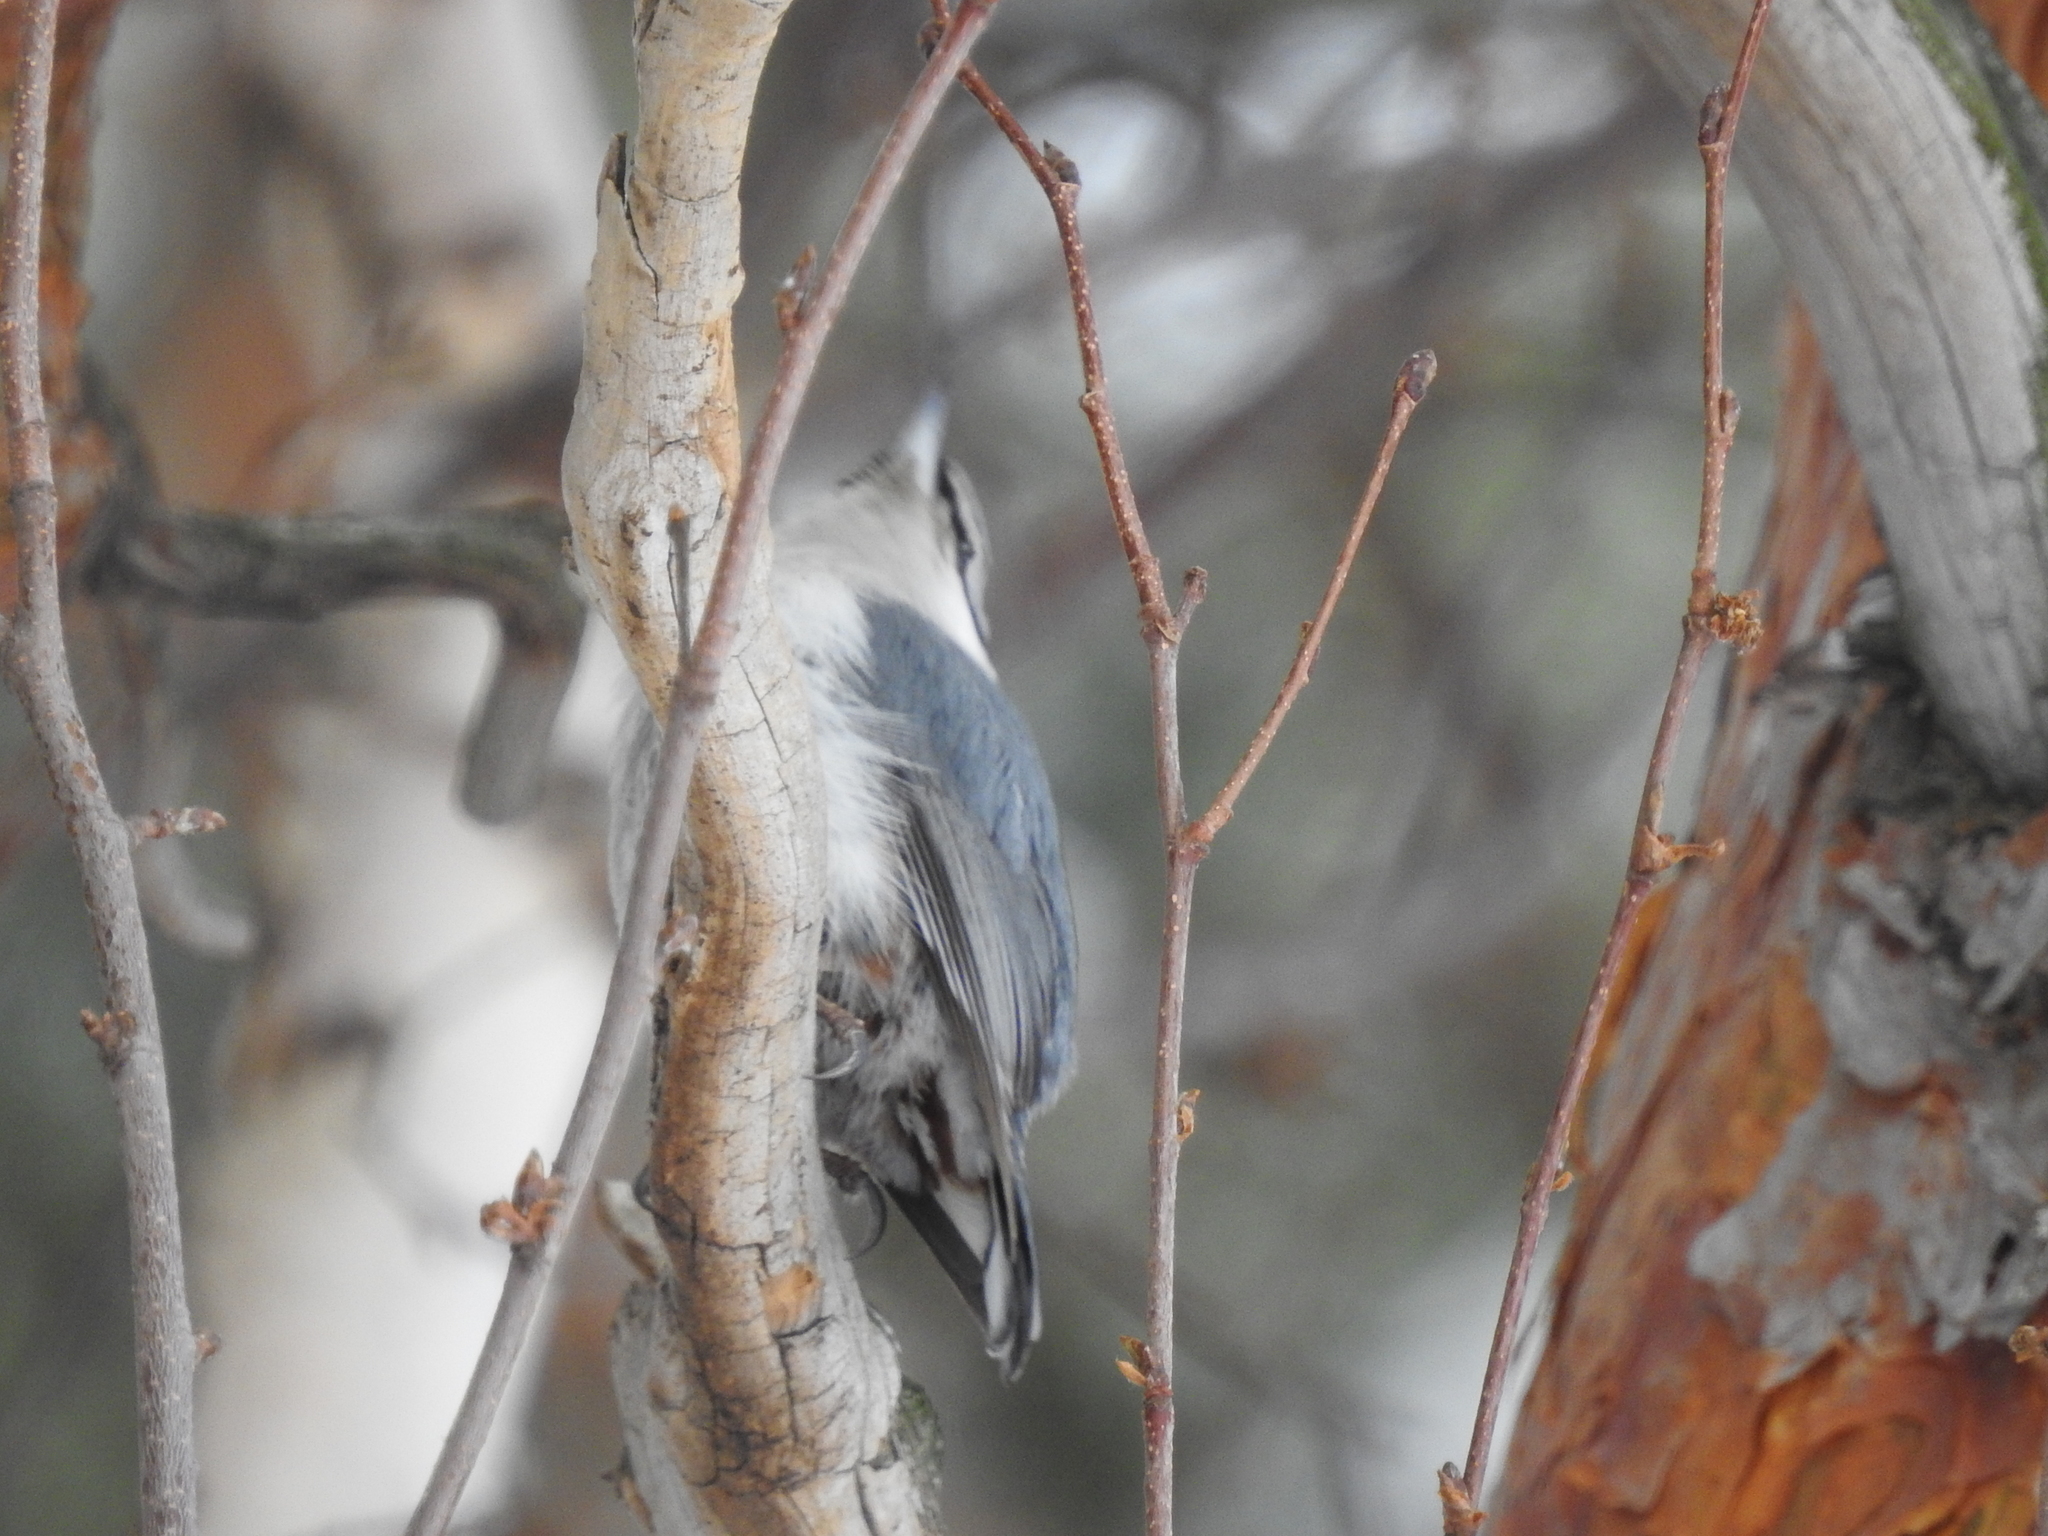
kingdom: Animalia
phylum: Chordata
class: Aves
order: Passeriformes
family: Sittidae
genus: Sitta
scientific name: Sitta europaea
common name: Eurasian nuthatch
